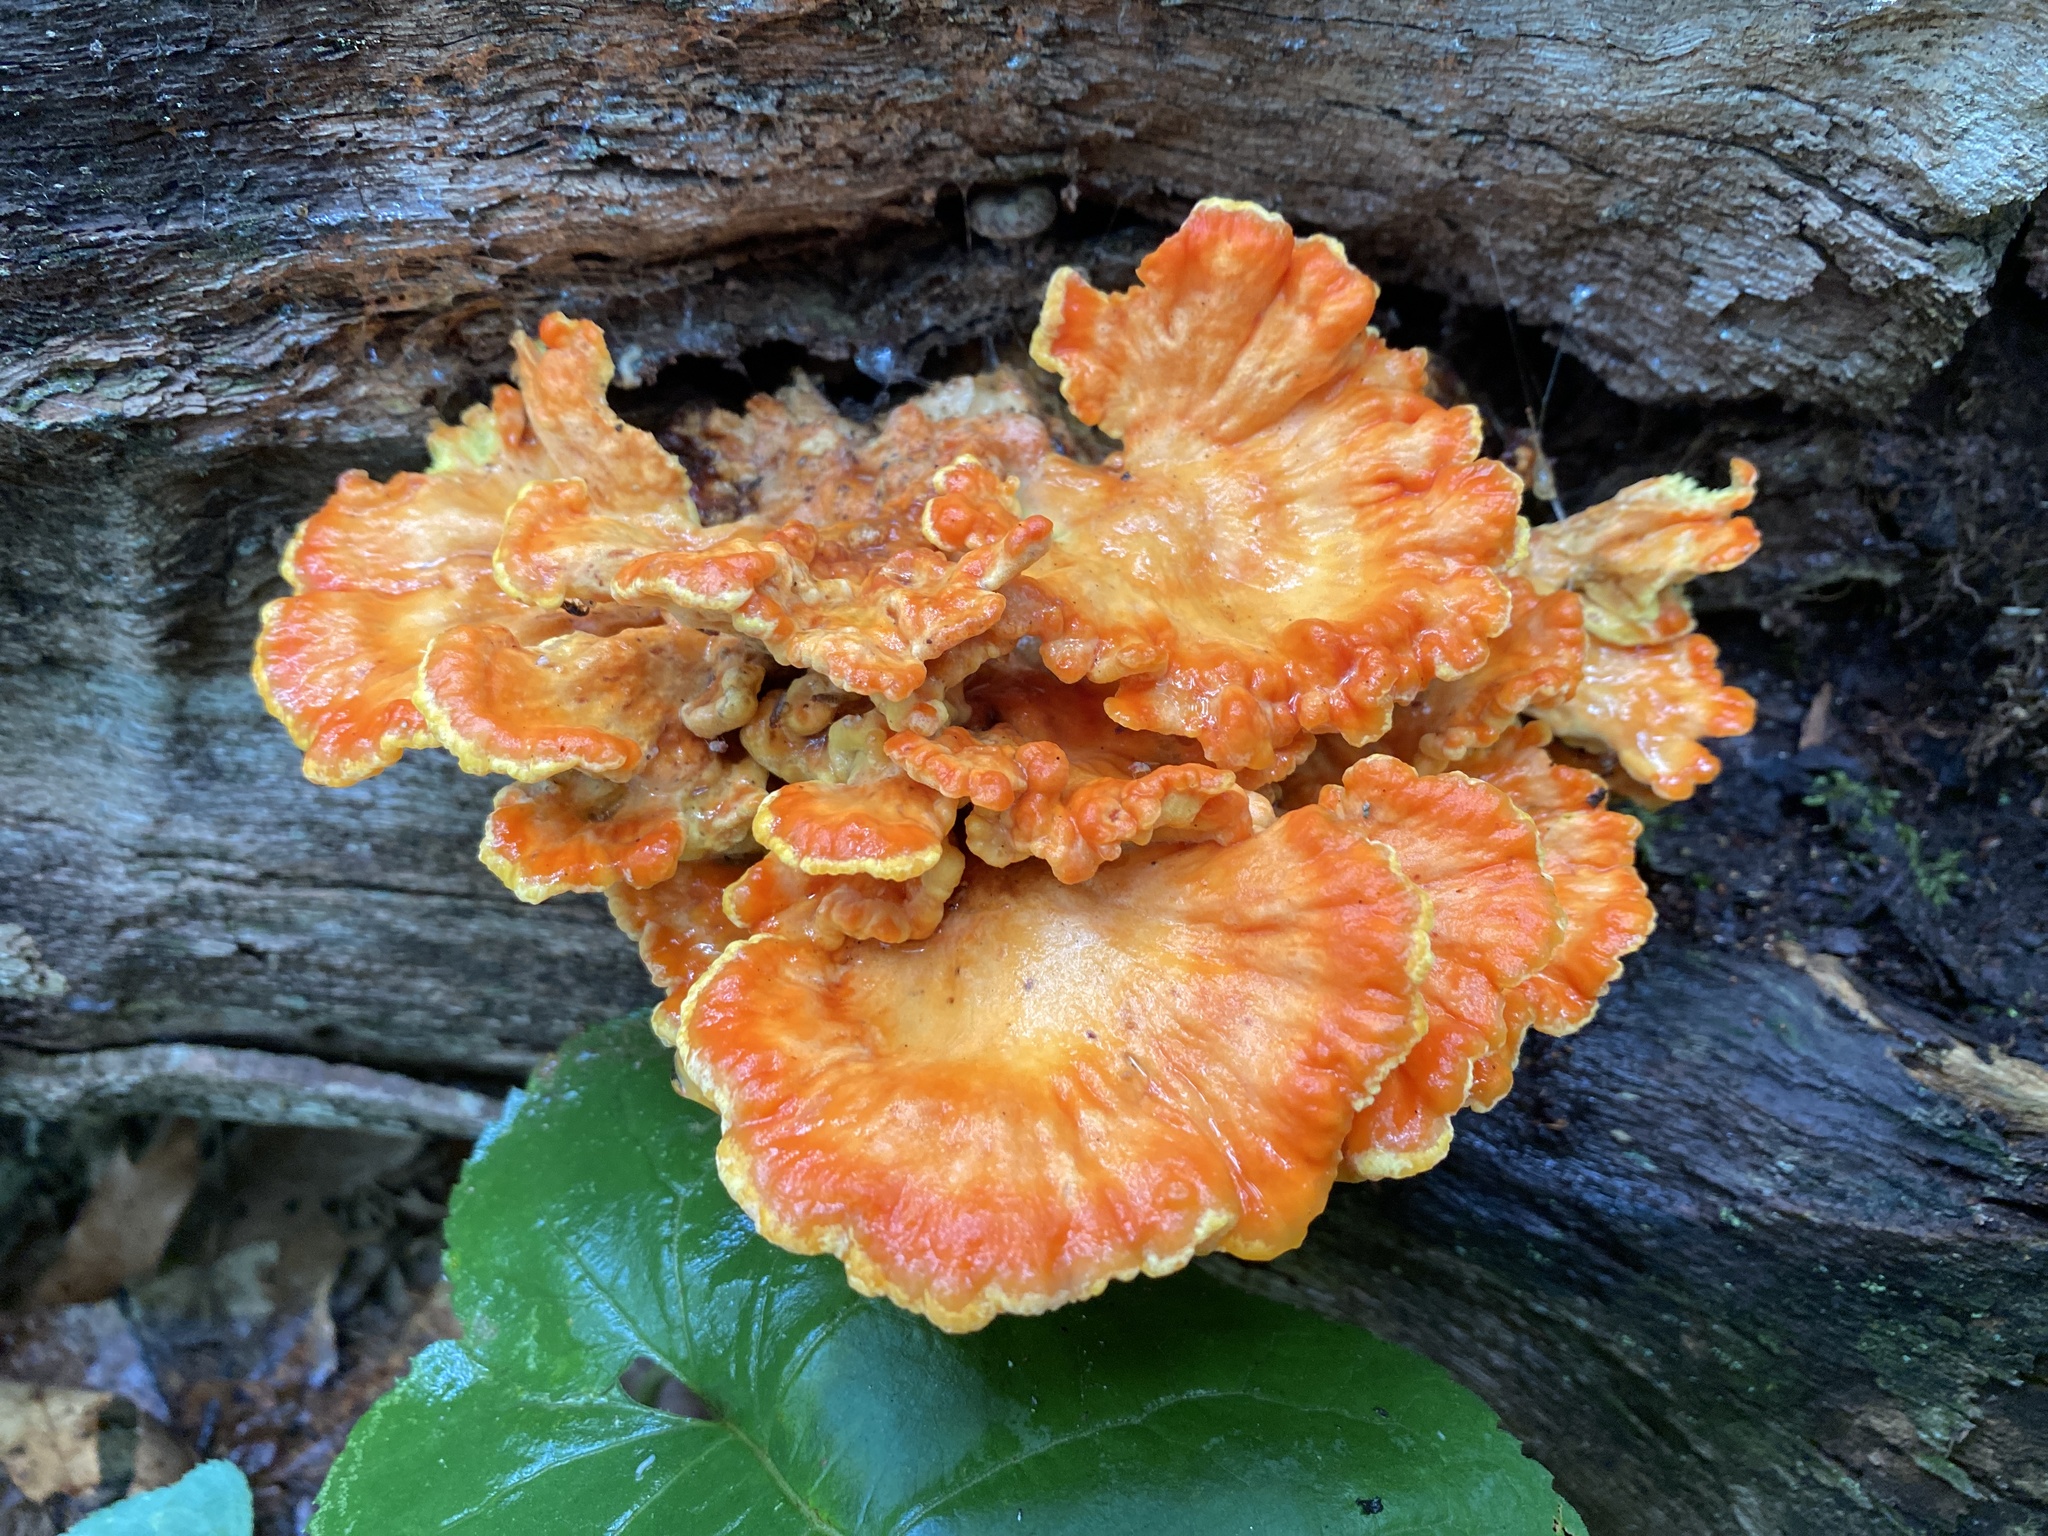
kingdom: Fungi
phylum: Basidiomycota
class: Agaricomycetes
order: Polyporales
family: Laetiporaceae
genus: Laetiporus
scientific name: Laetiporus sulphureus
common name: Chicken of the woods
